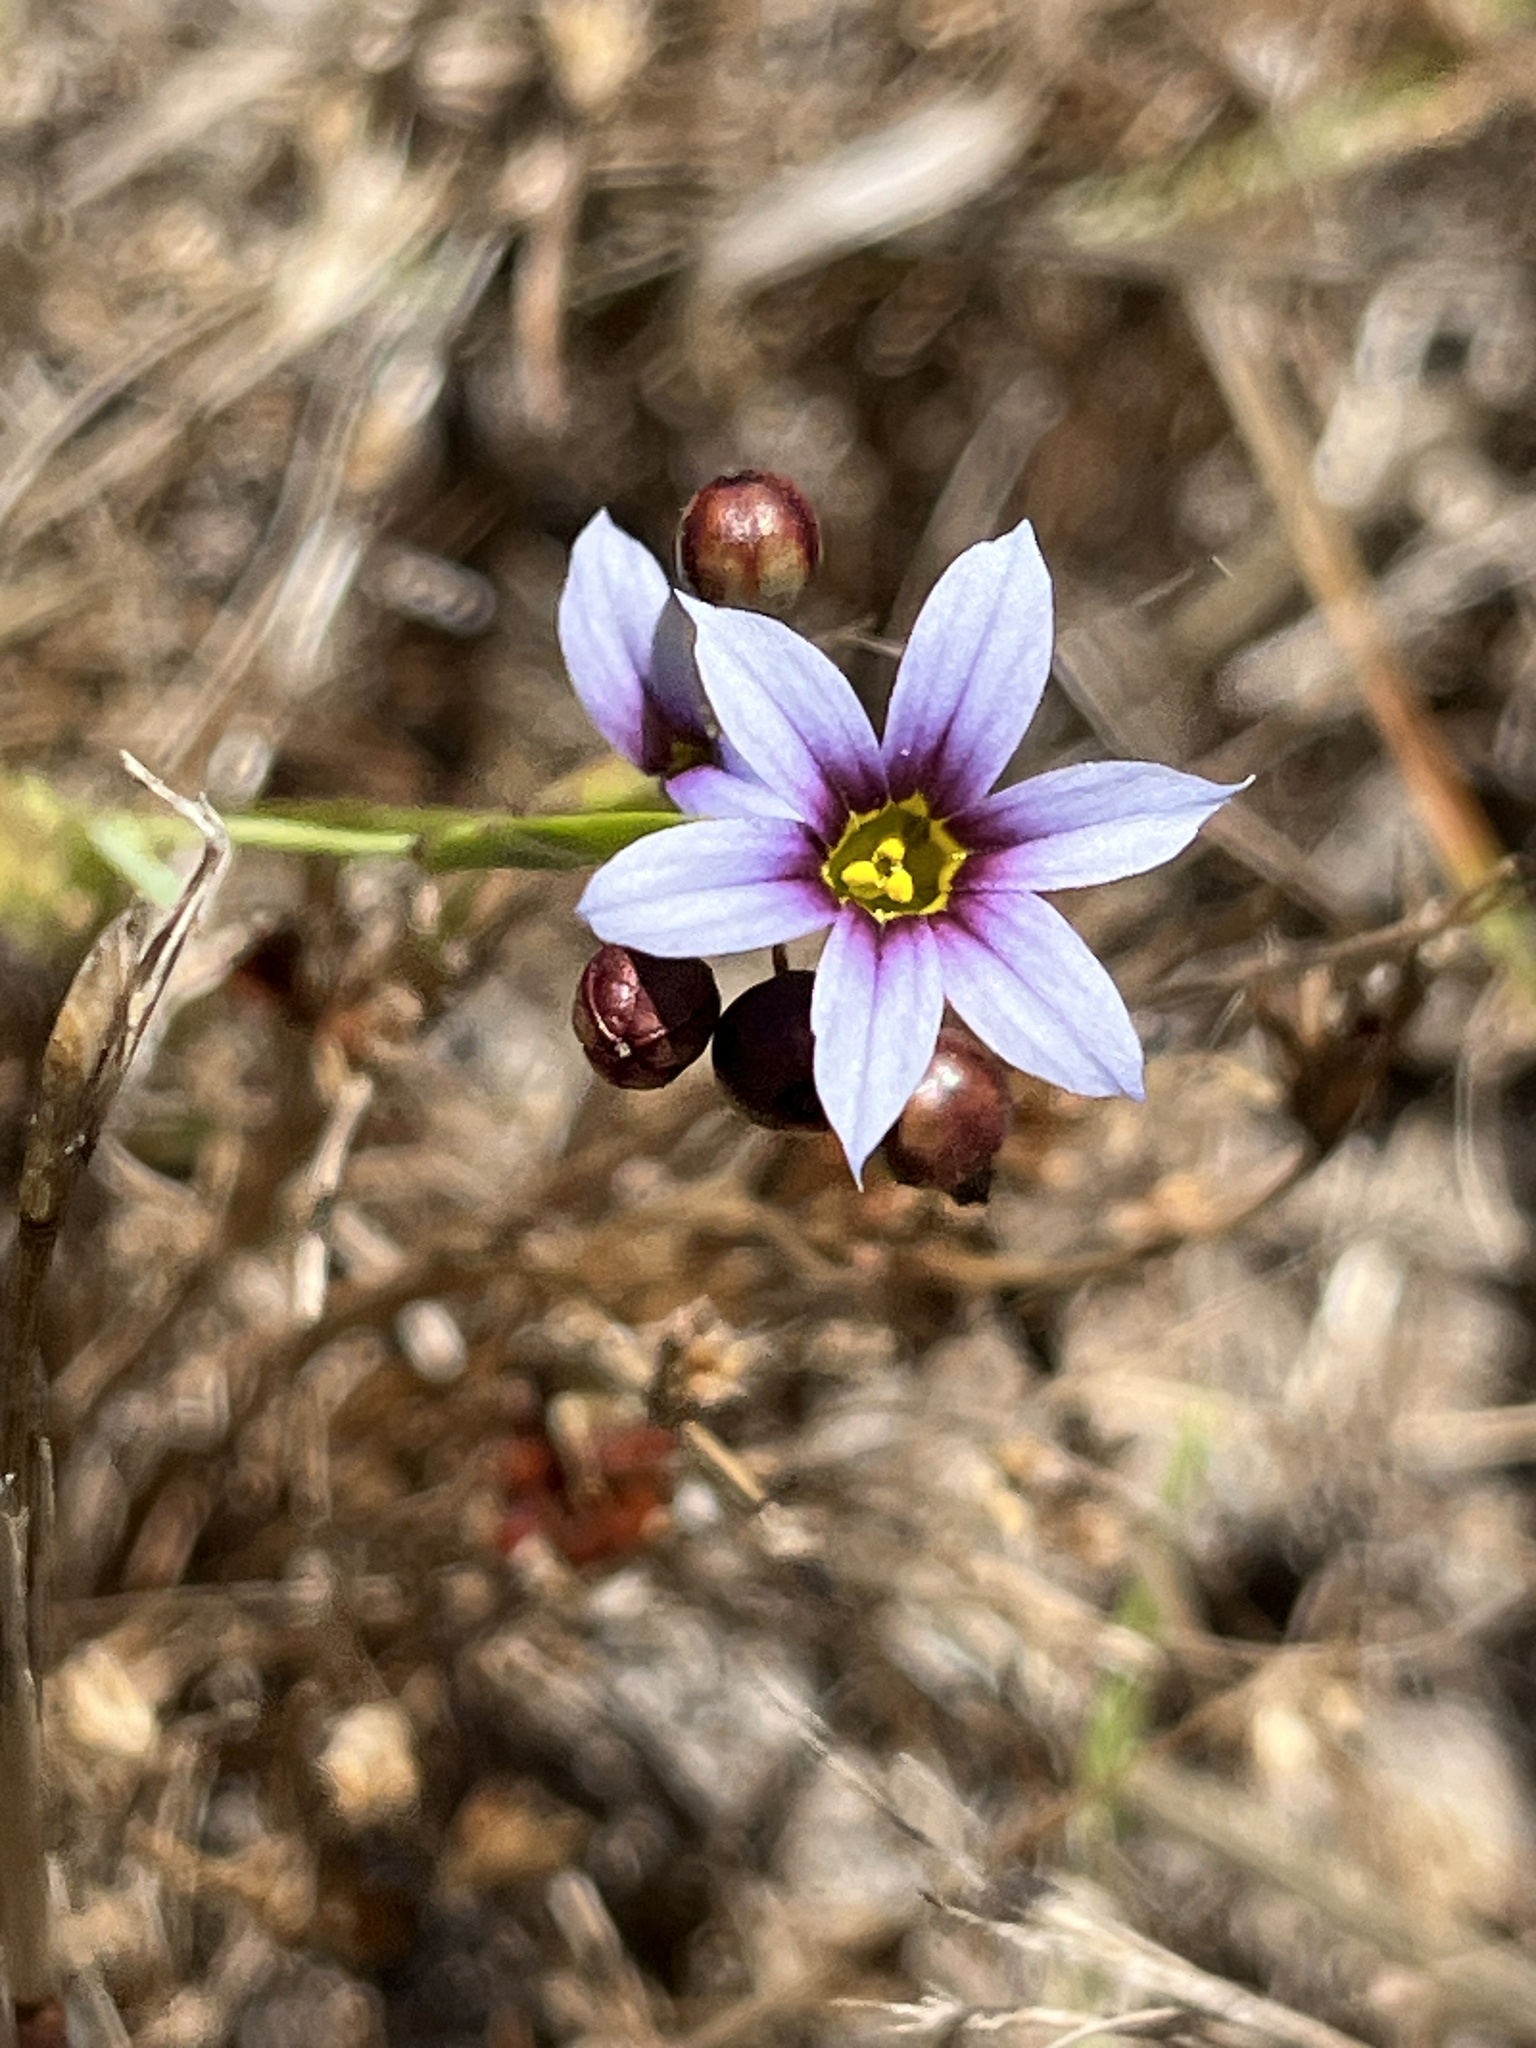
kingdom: Plantae
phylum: Tracheophyta
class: Liliopsida
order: Asparagales
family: Iridaceae
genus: Sisyrinchium
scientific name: Sisyrinchium micranthum
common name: Bermuda pigroot
